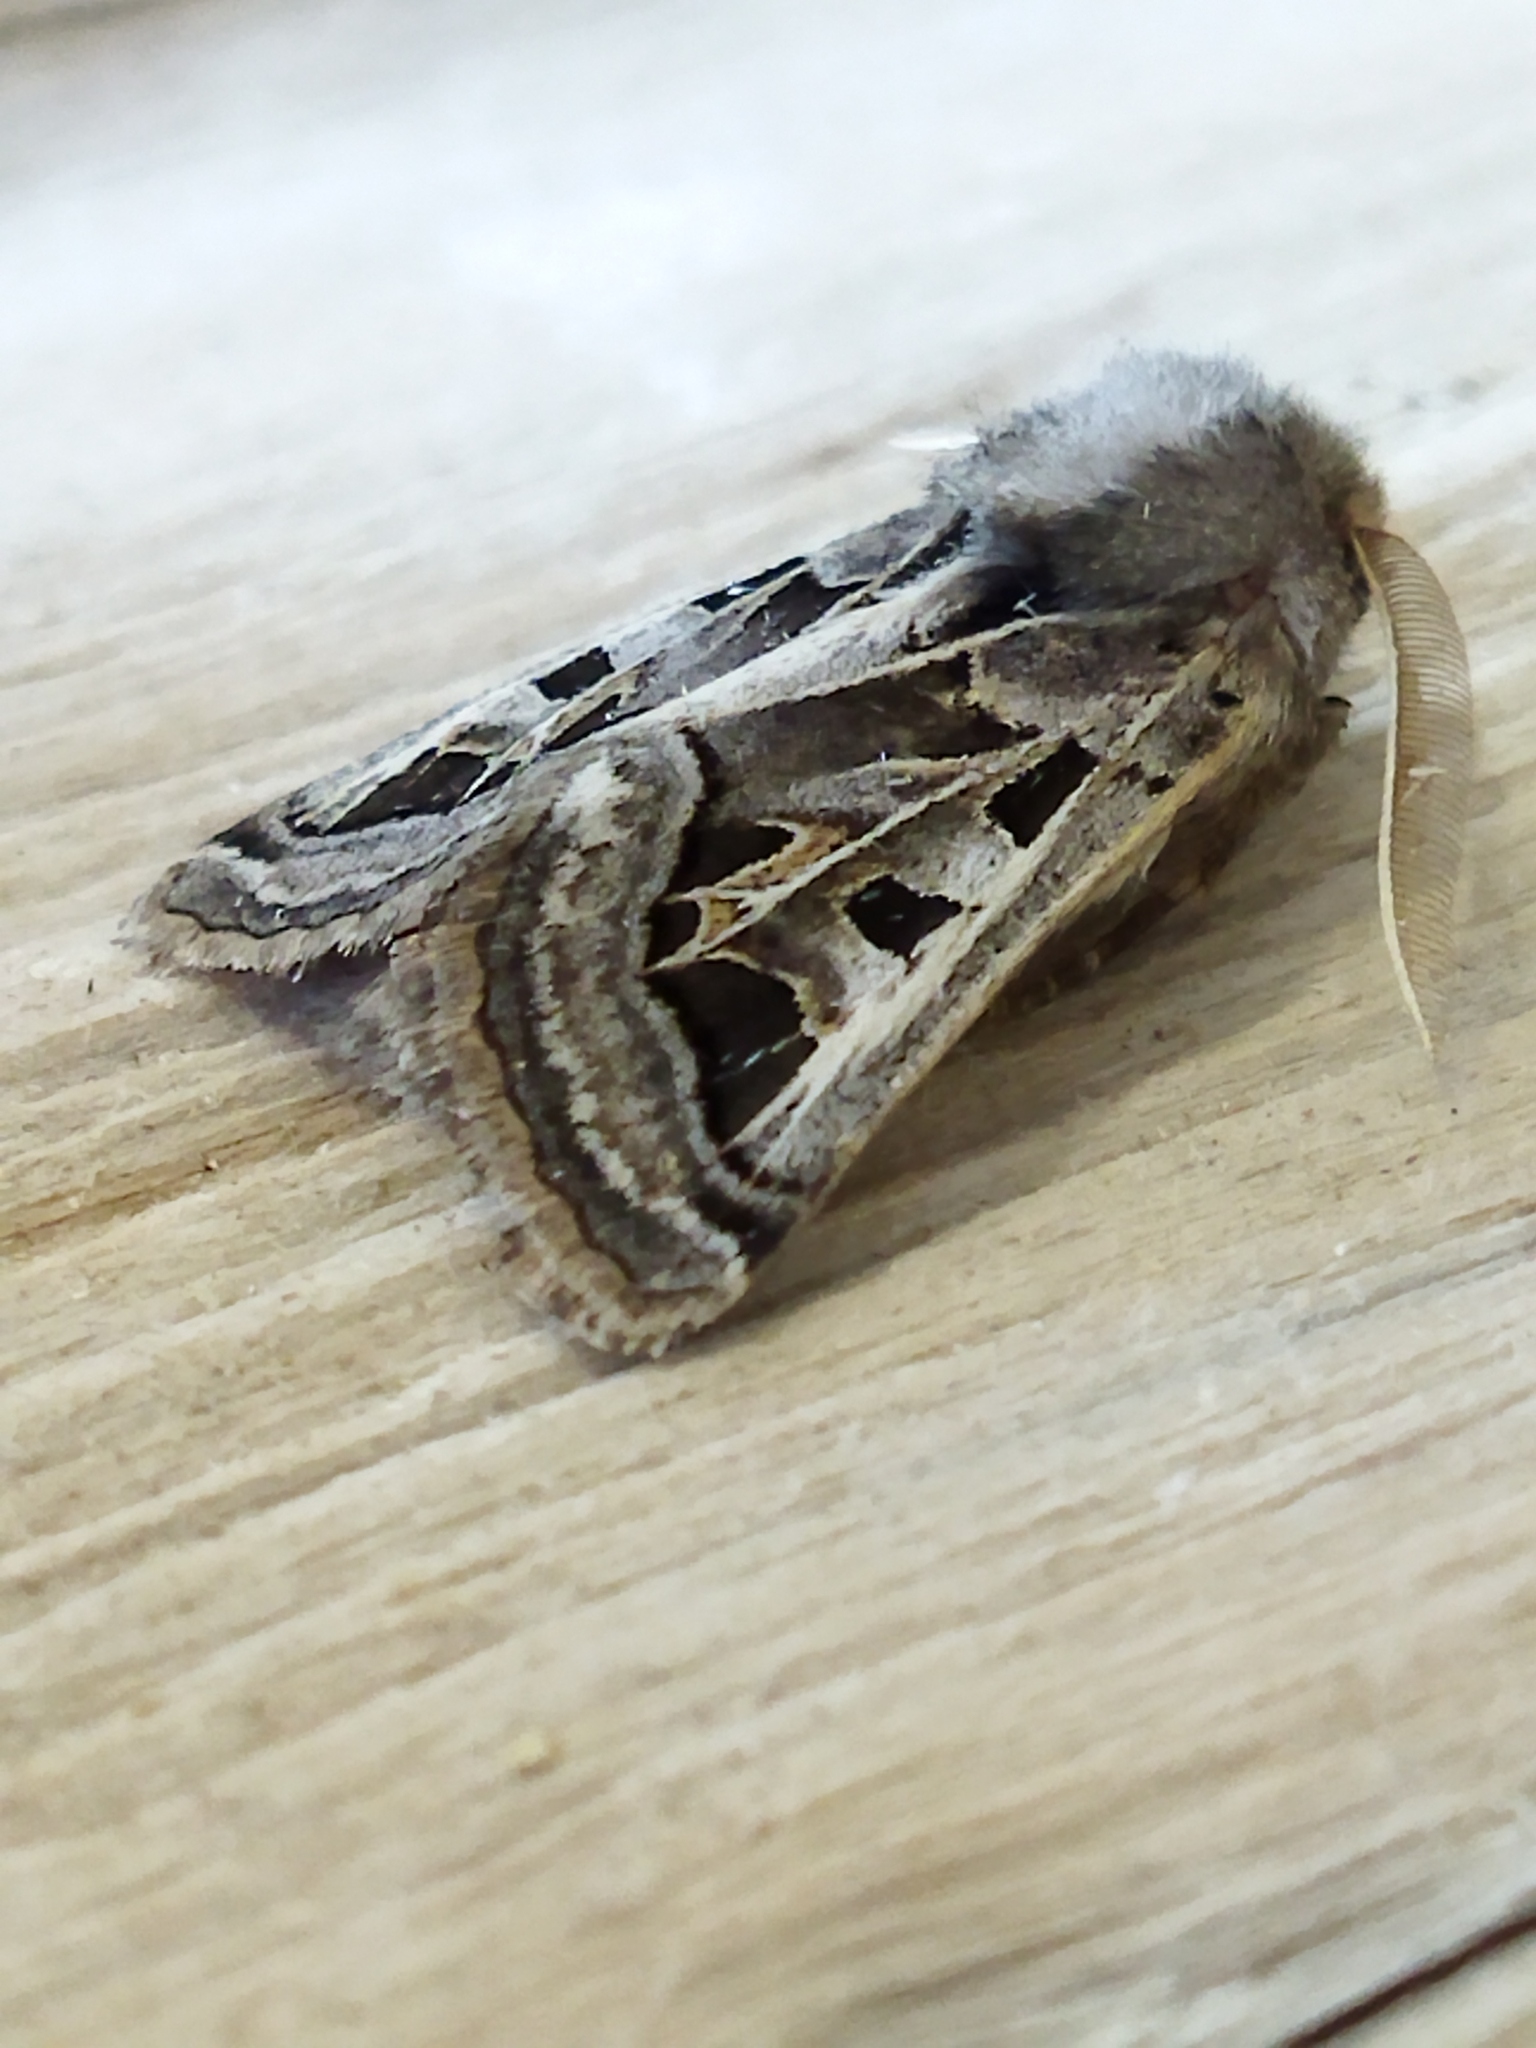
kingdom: Animalia
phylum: Arthropoda
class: Insecta
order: Lepidoptera
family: Noctuidae
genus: Episema
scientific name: Episema glaucina
